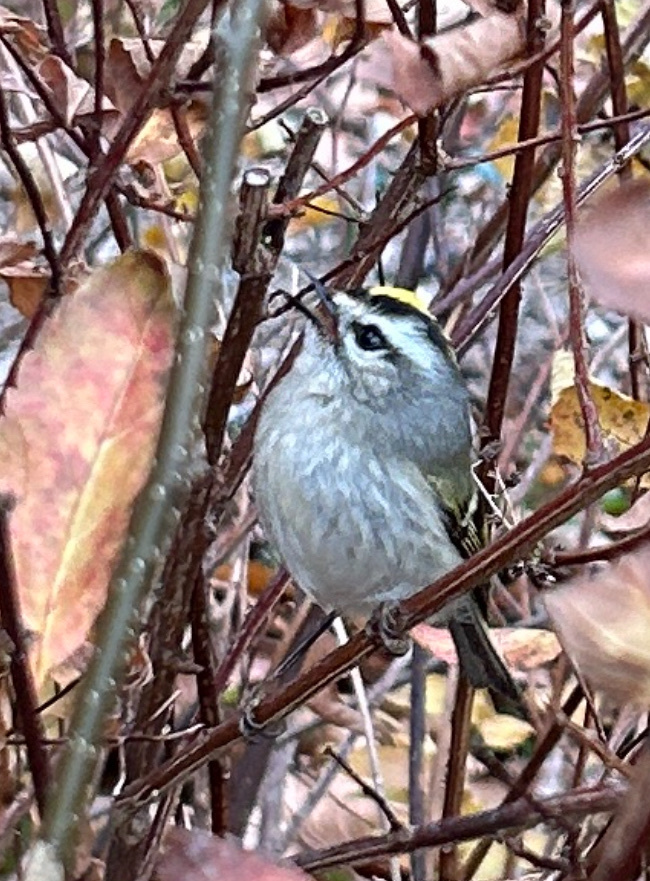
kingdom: Animalia
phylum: Chordata
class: Aves
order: Passeriformes
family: Regulidae
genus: Regulus
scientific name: Regulus satrapa
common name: Golden-crowned kinglet
